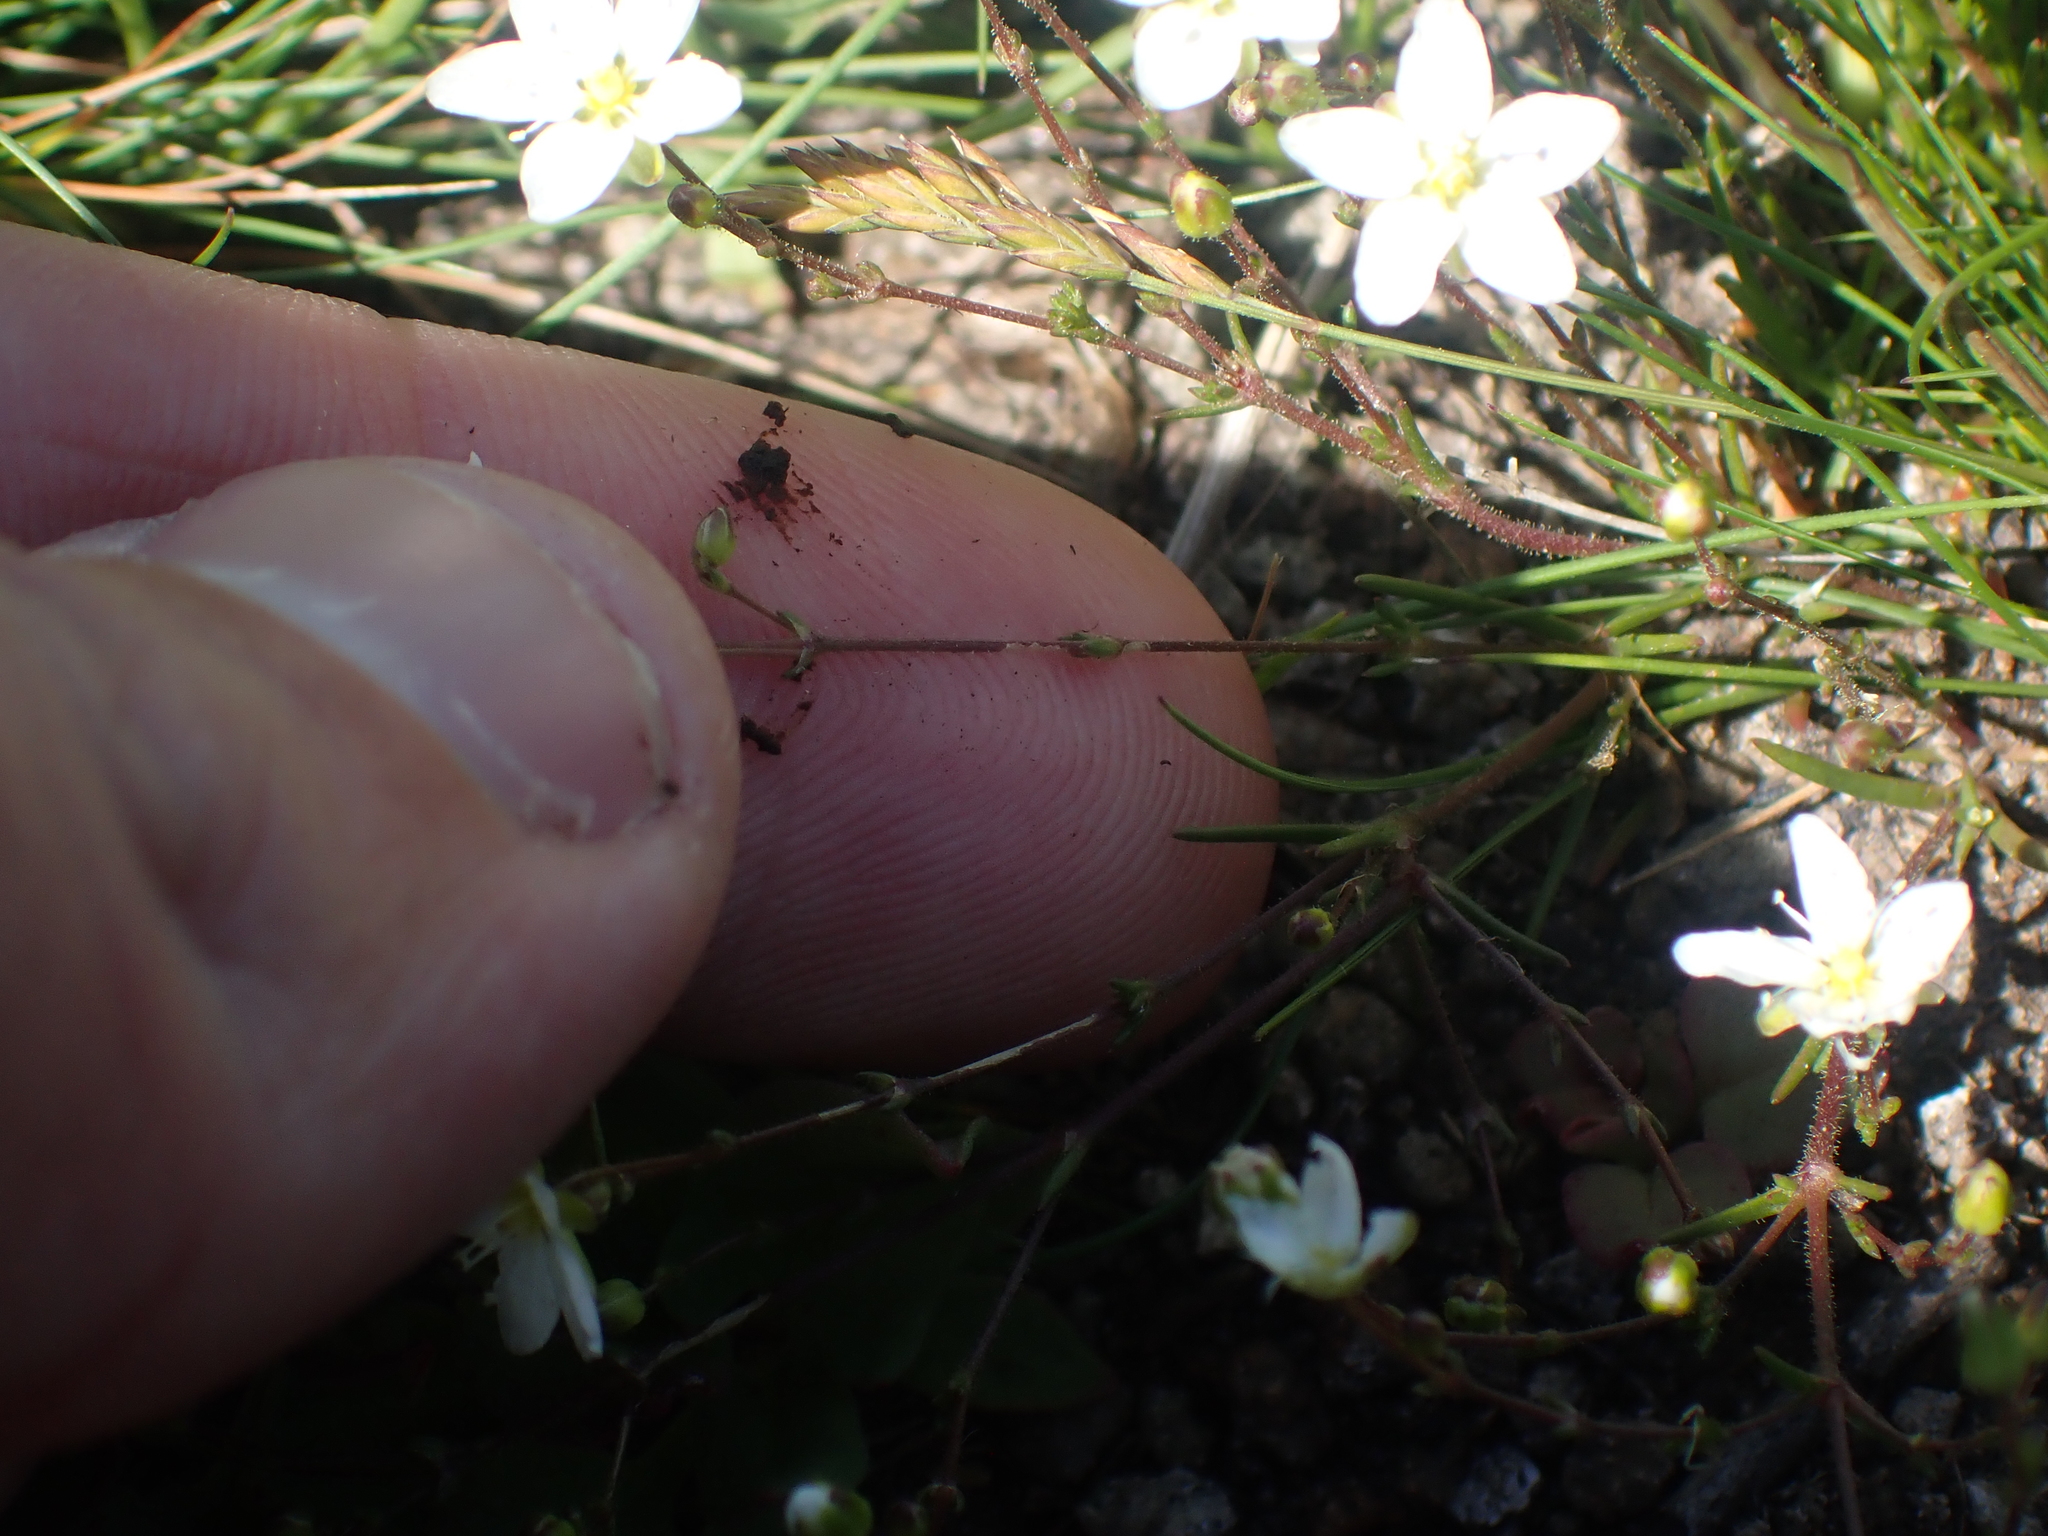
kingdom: Plantae
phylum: Tracheophyta
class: Magnoliopsida
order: Caryophyllales
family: Caryophyllaceae
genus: Sagina
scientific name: Sagina nodosa
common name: Knotted pearlwort
